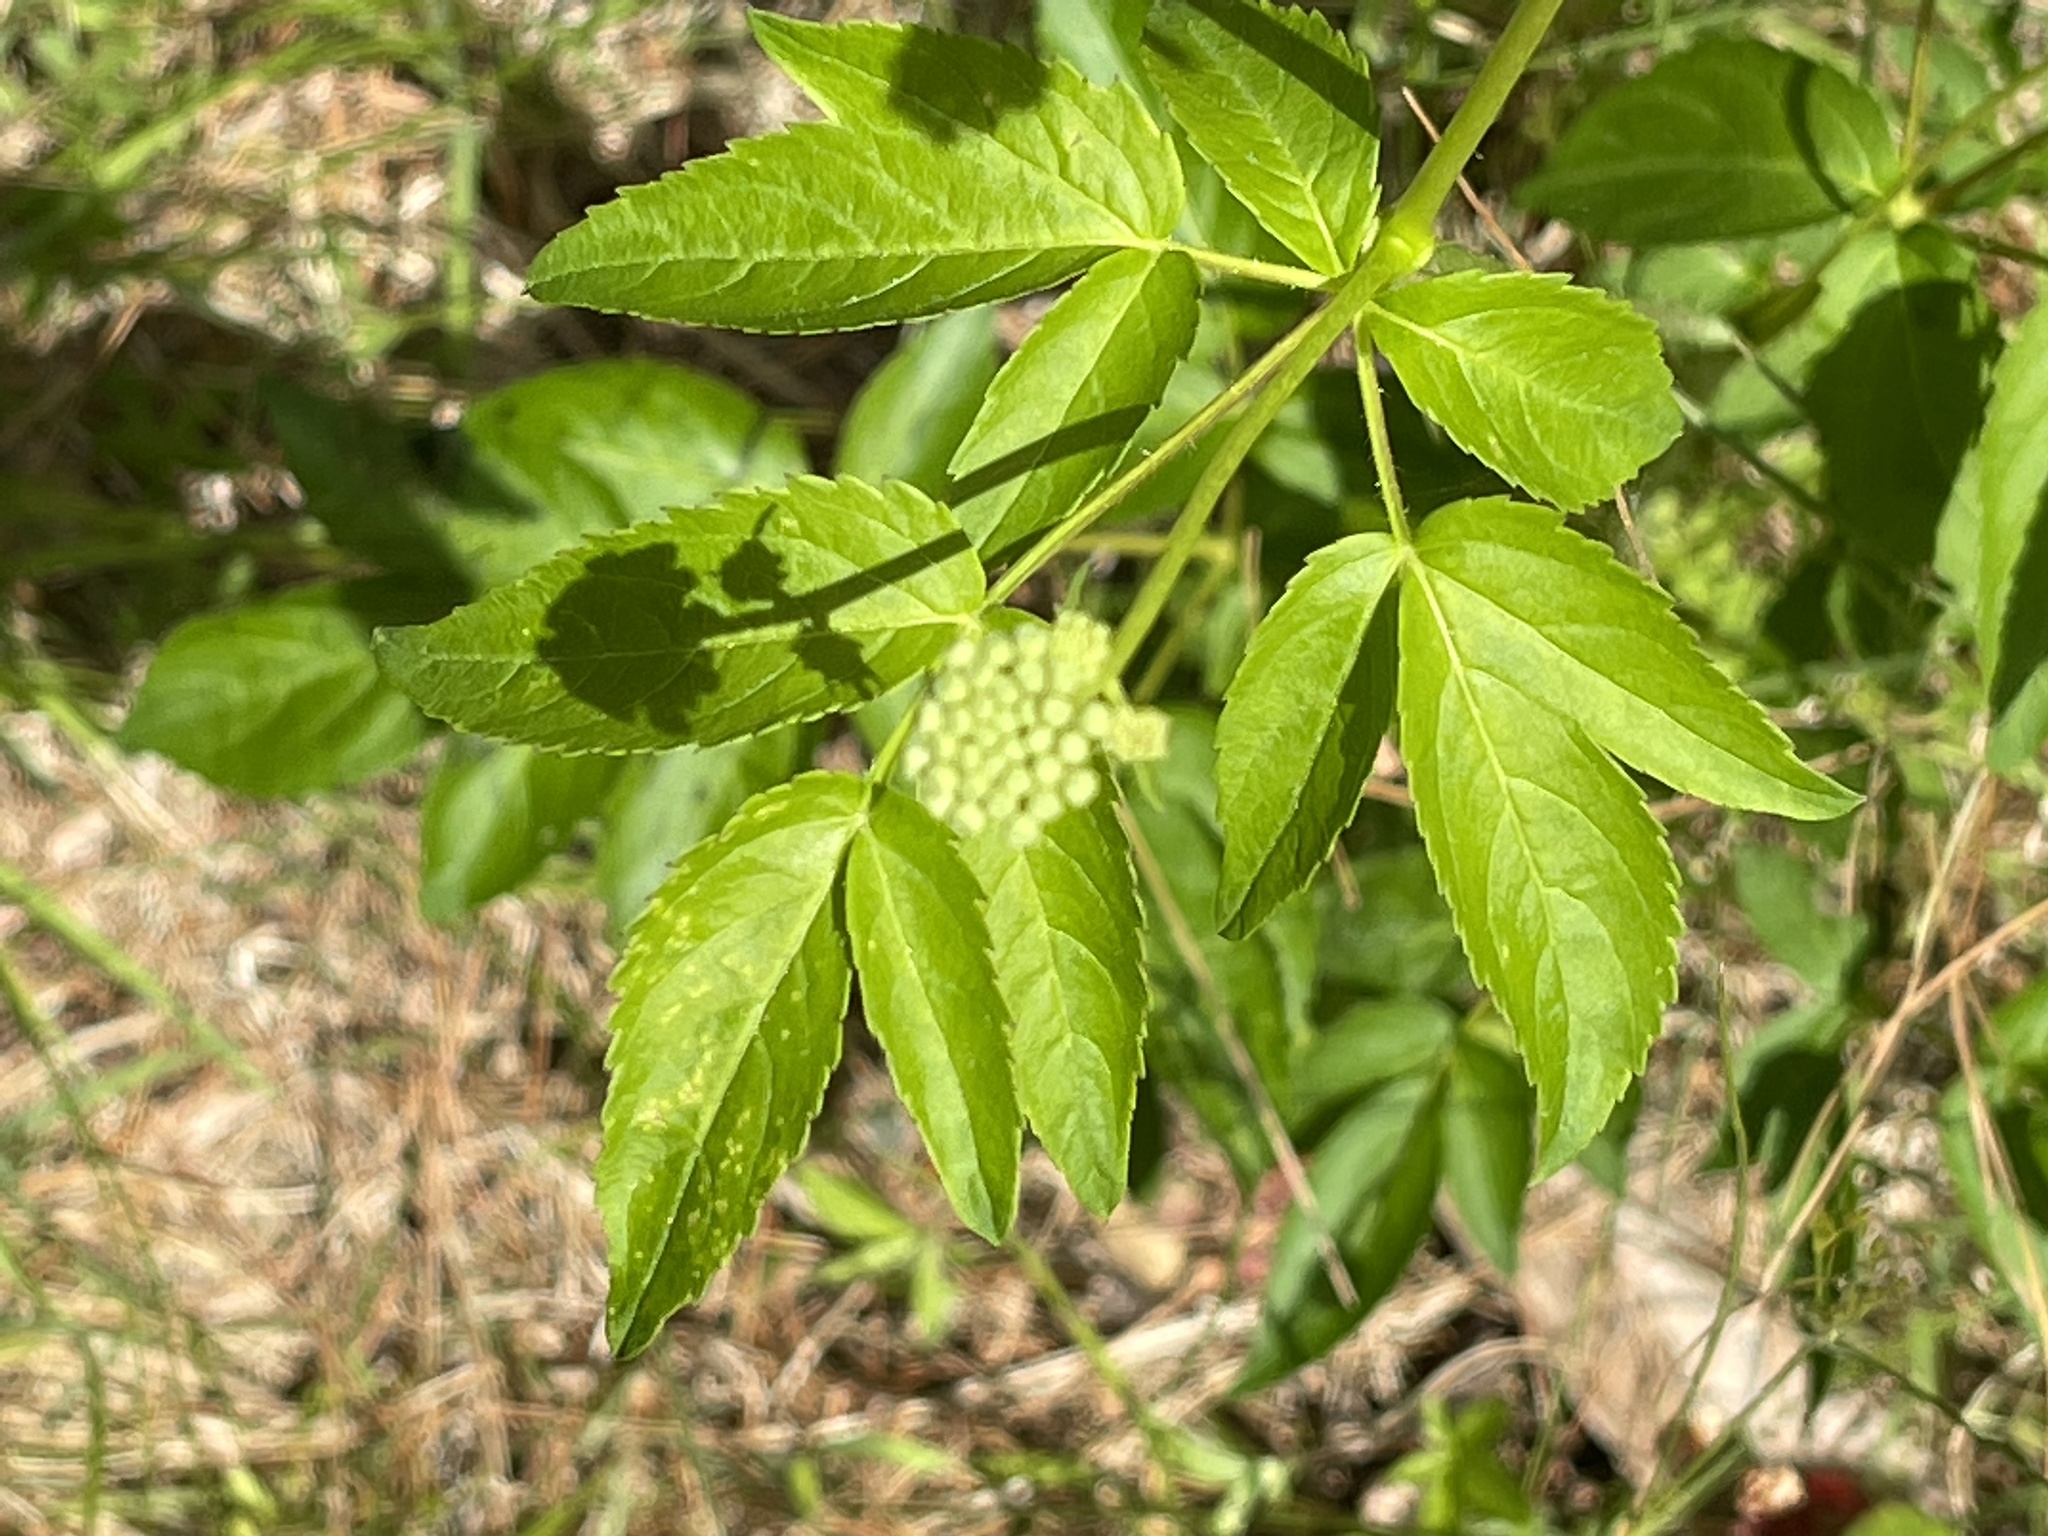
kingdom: Plantae
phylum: Tracheophyta
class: Magnoliopsida
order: Apiales
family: Araliaceae
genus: Aralia
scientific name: Aralia hispida
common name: Bristly sarsaparilla
